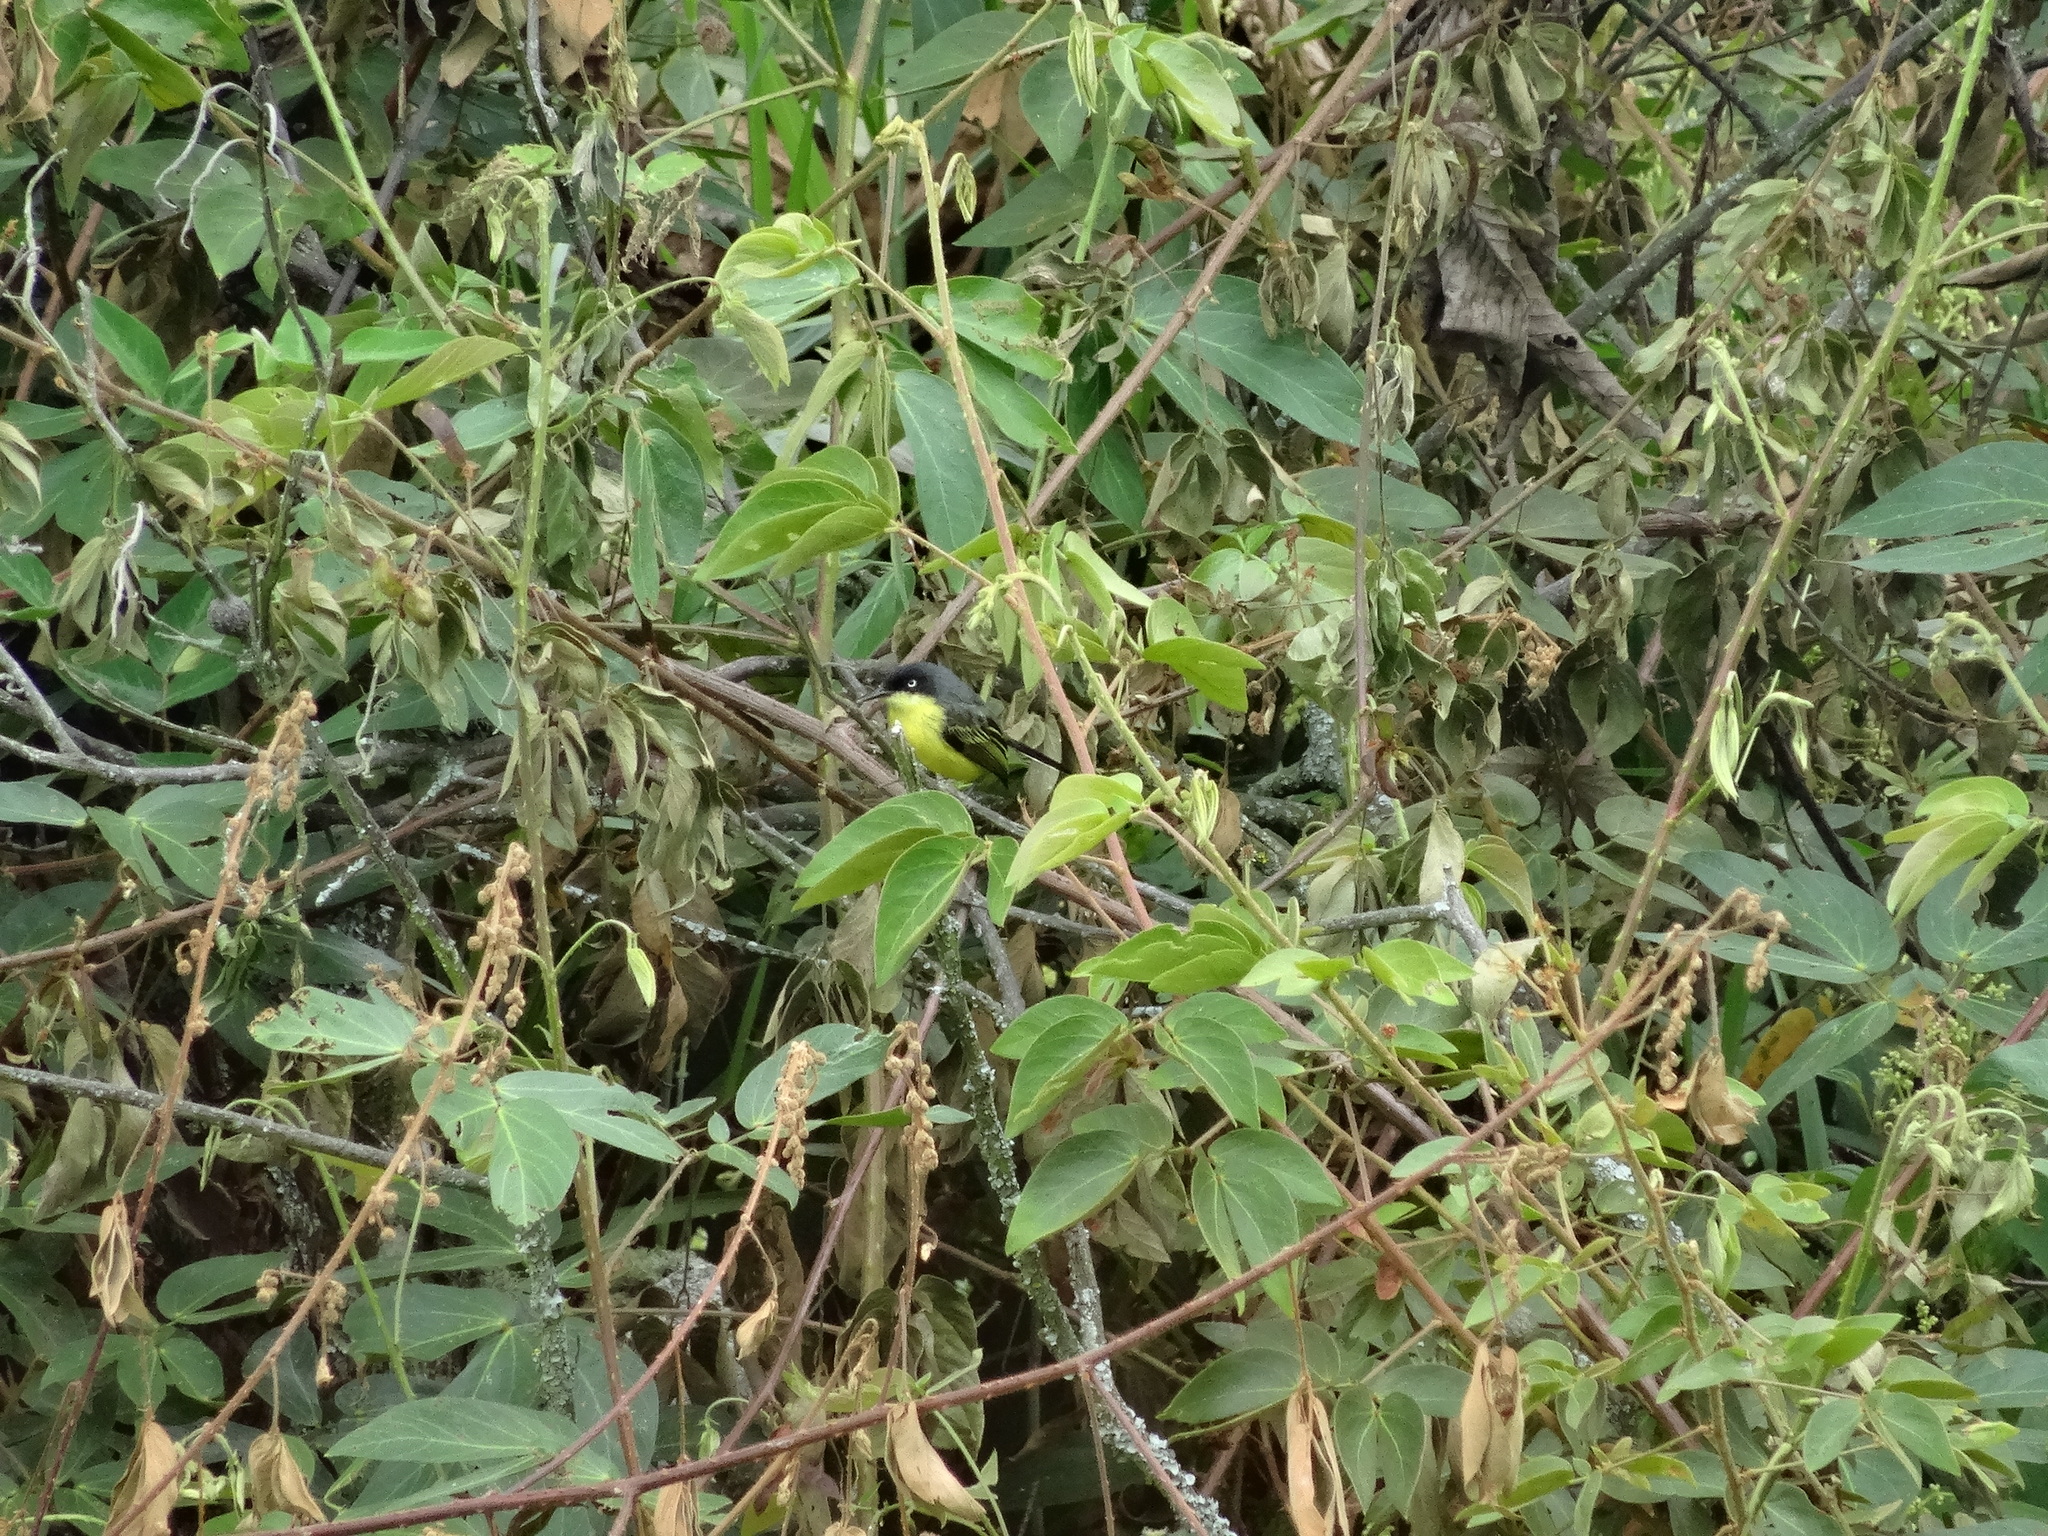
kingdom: Animalia
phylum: Chordata
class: Aves
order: Passeriformes
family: Tyrannidae
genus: Todirostrum
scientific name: Todirostrum cinereum
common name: Common tody-flycatcher
